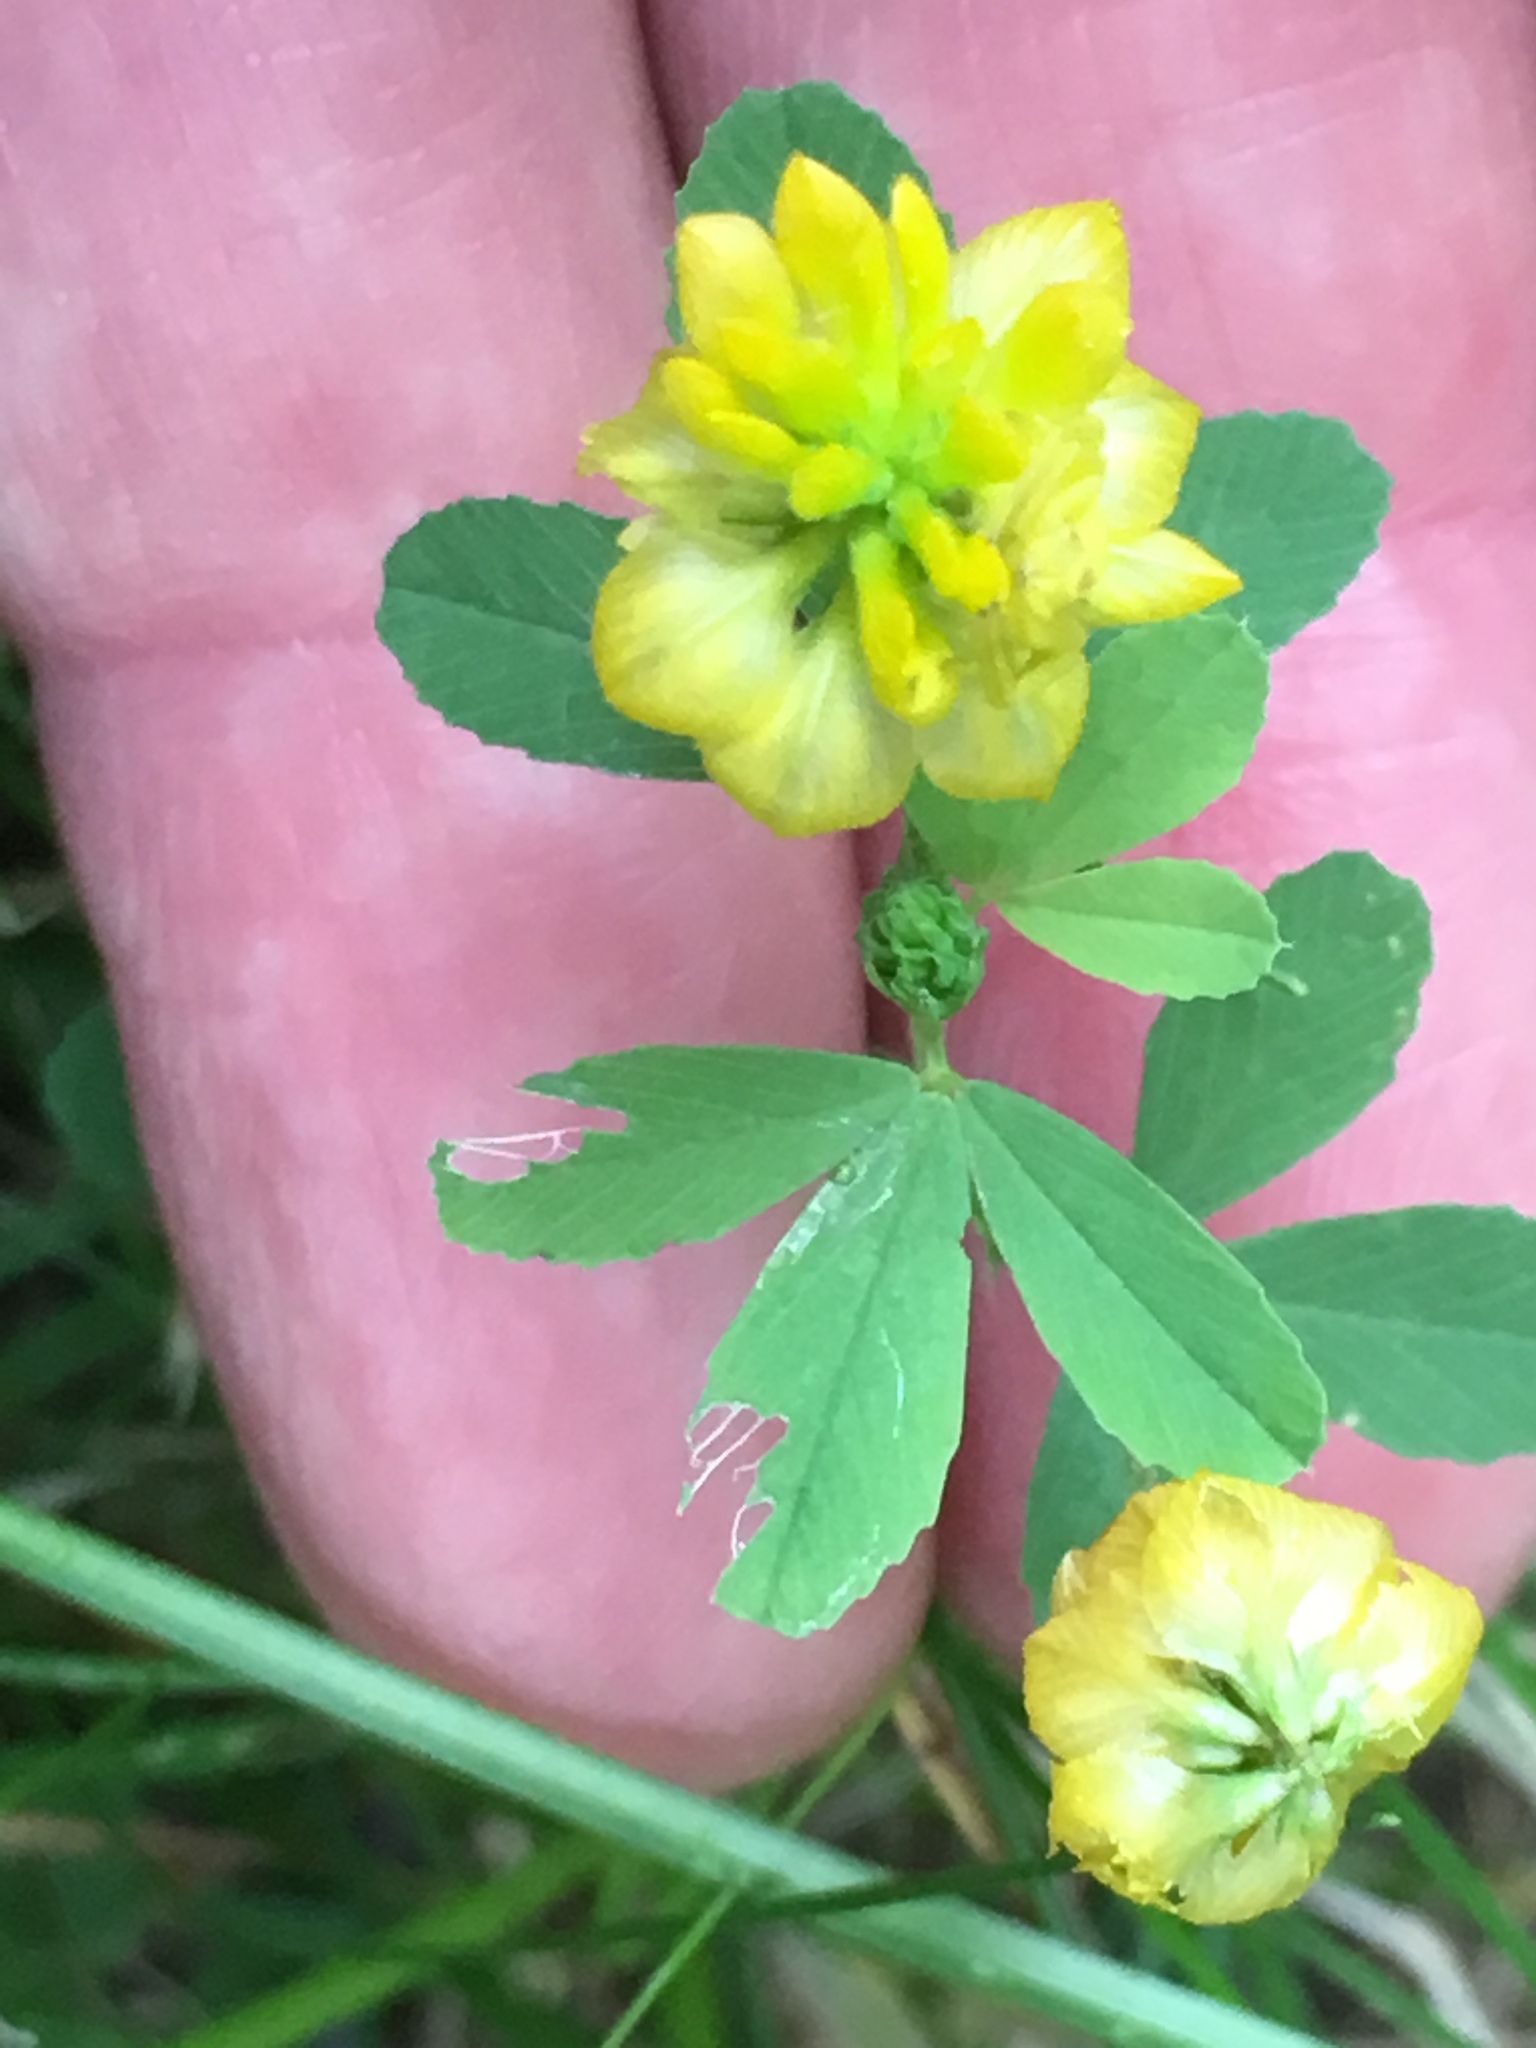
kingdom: Plantae
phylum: Tracheophyta
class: Magnoliopsida
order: Fabales
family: Fabaceae
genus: Trifolium
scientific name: Trifolium aureum
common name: Golden clover
